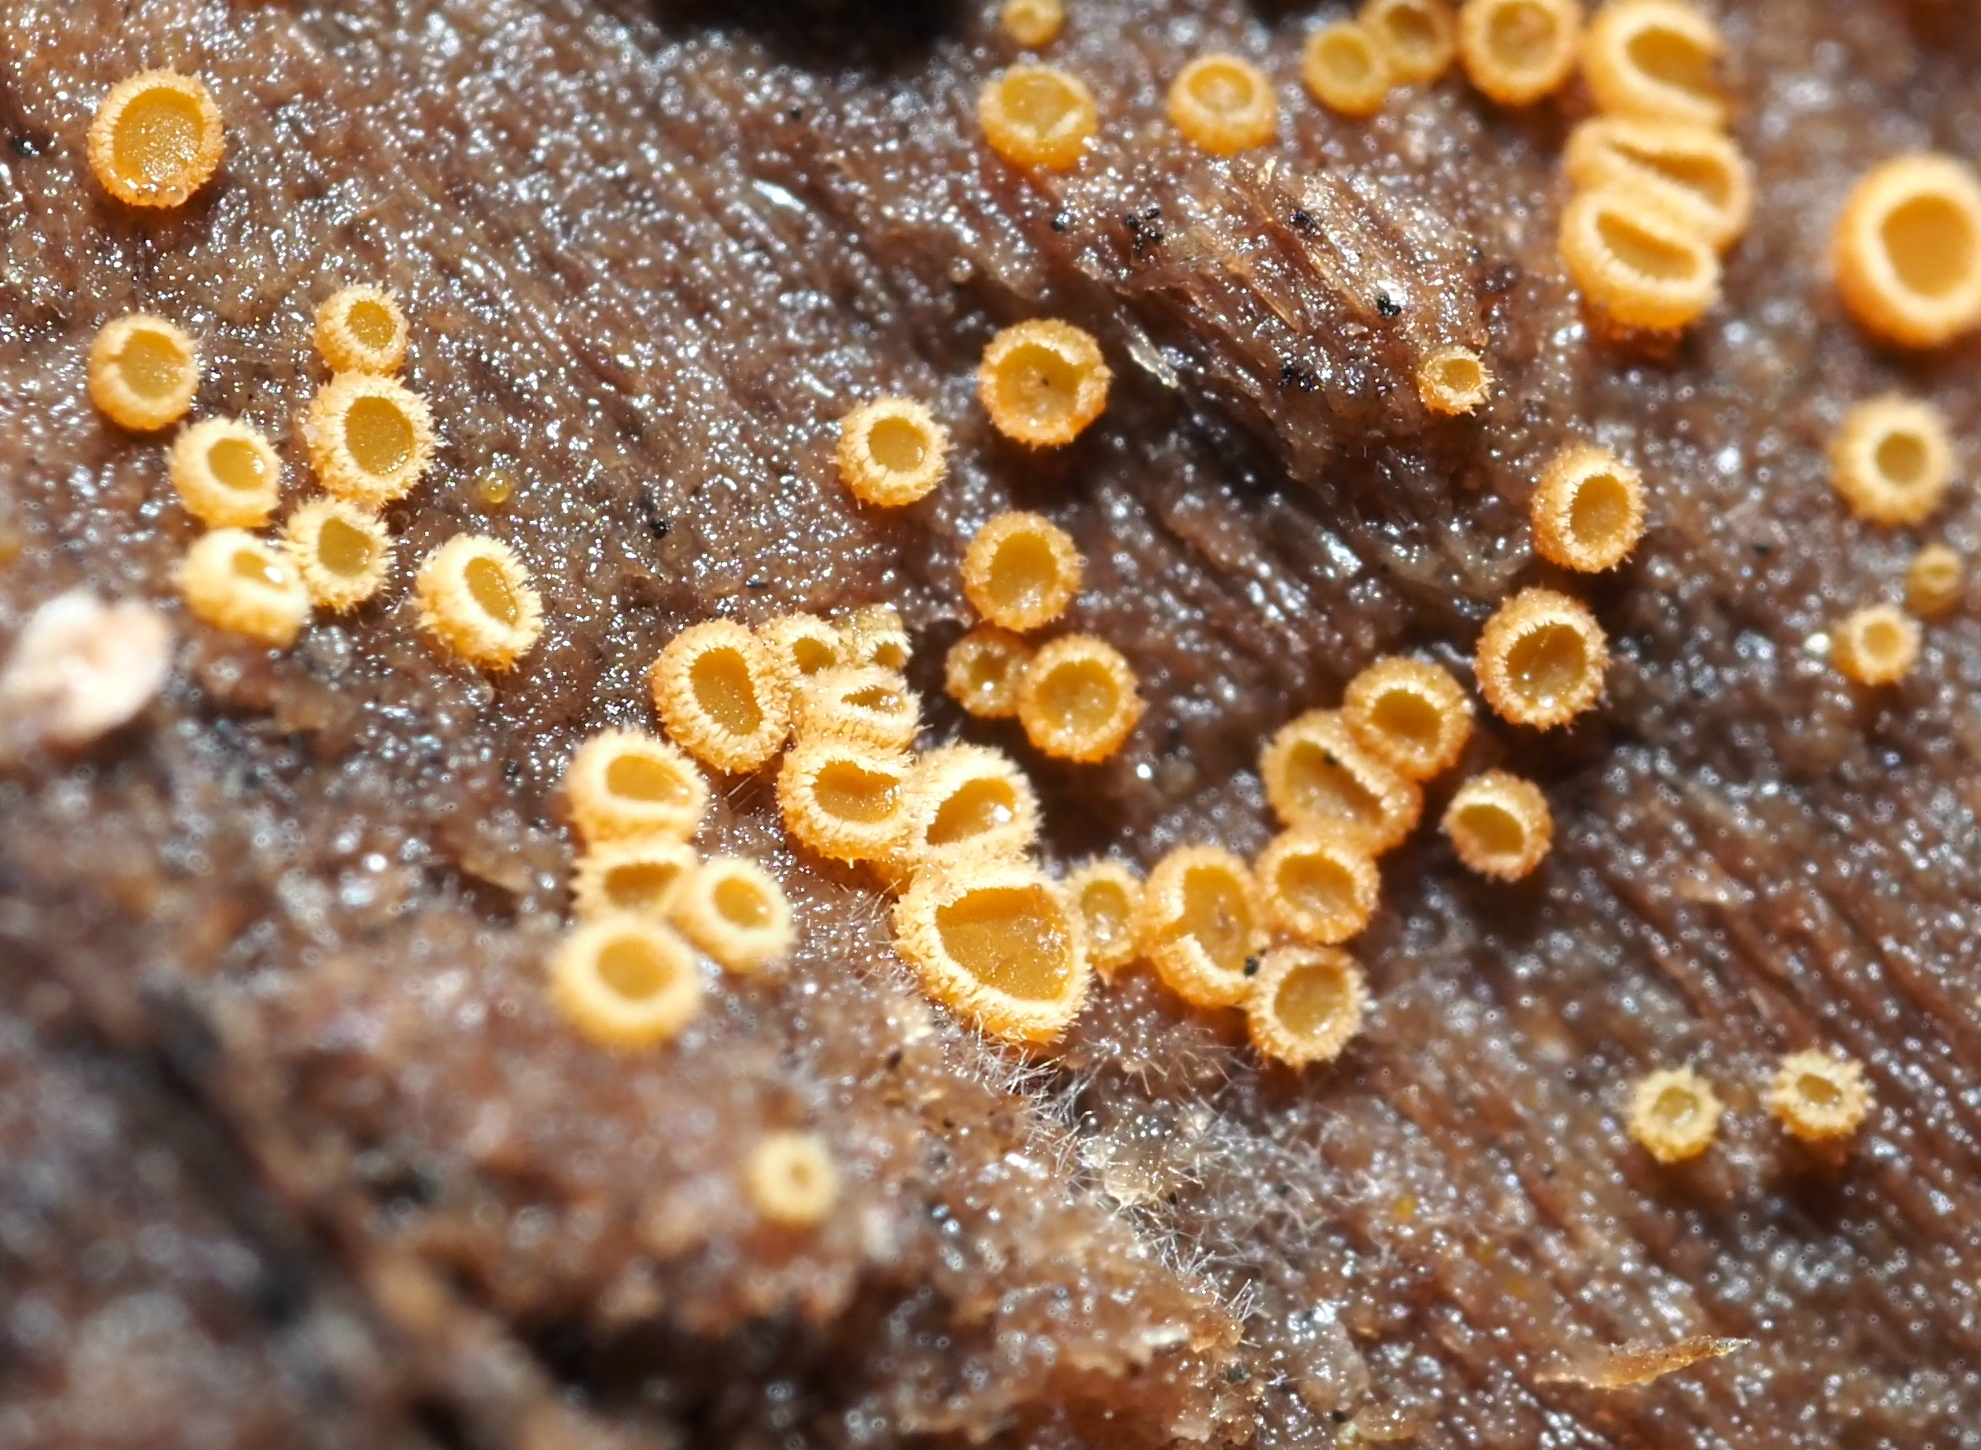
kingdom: Fungi
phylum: Ascomycota
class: Leotiomycetes
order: Helotiales
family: Arachnopezizaceae
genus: Arachnopeziza
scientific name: Arachnopeziza trabinelloides
